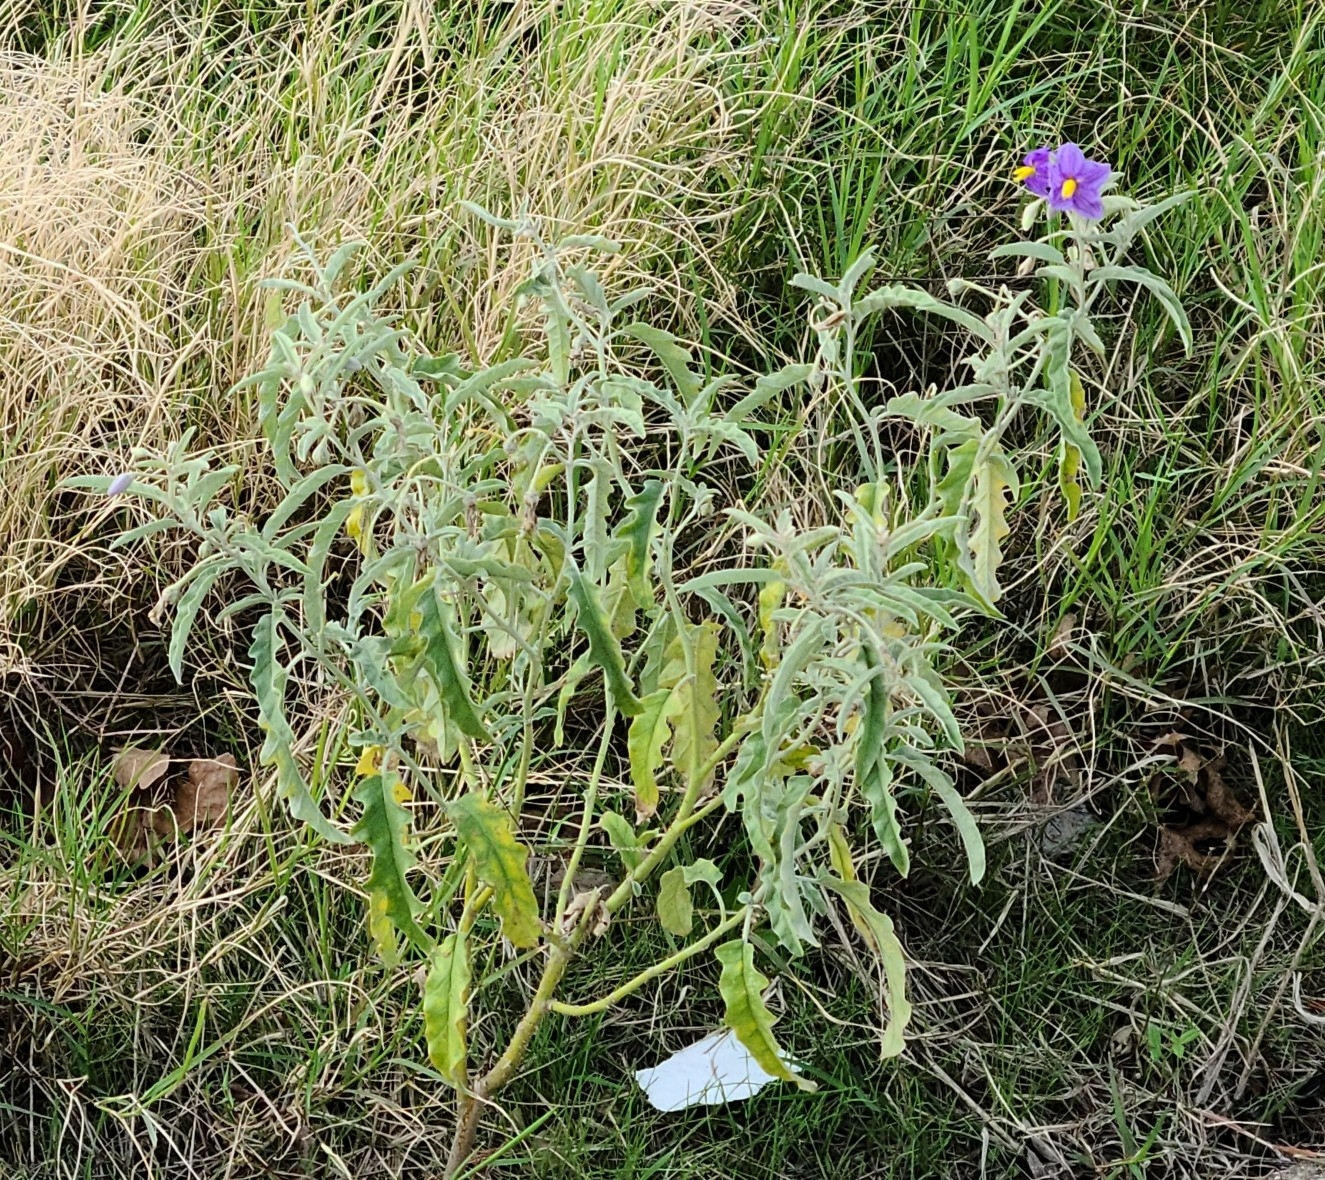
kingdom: Plantae
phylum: Tracheophyta
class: Magnoliopsida
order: Solanales
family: Solanaceae
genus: Solanum
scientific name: Solanum elaeagnifolium
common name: Silverleaf nightshade
